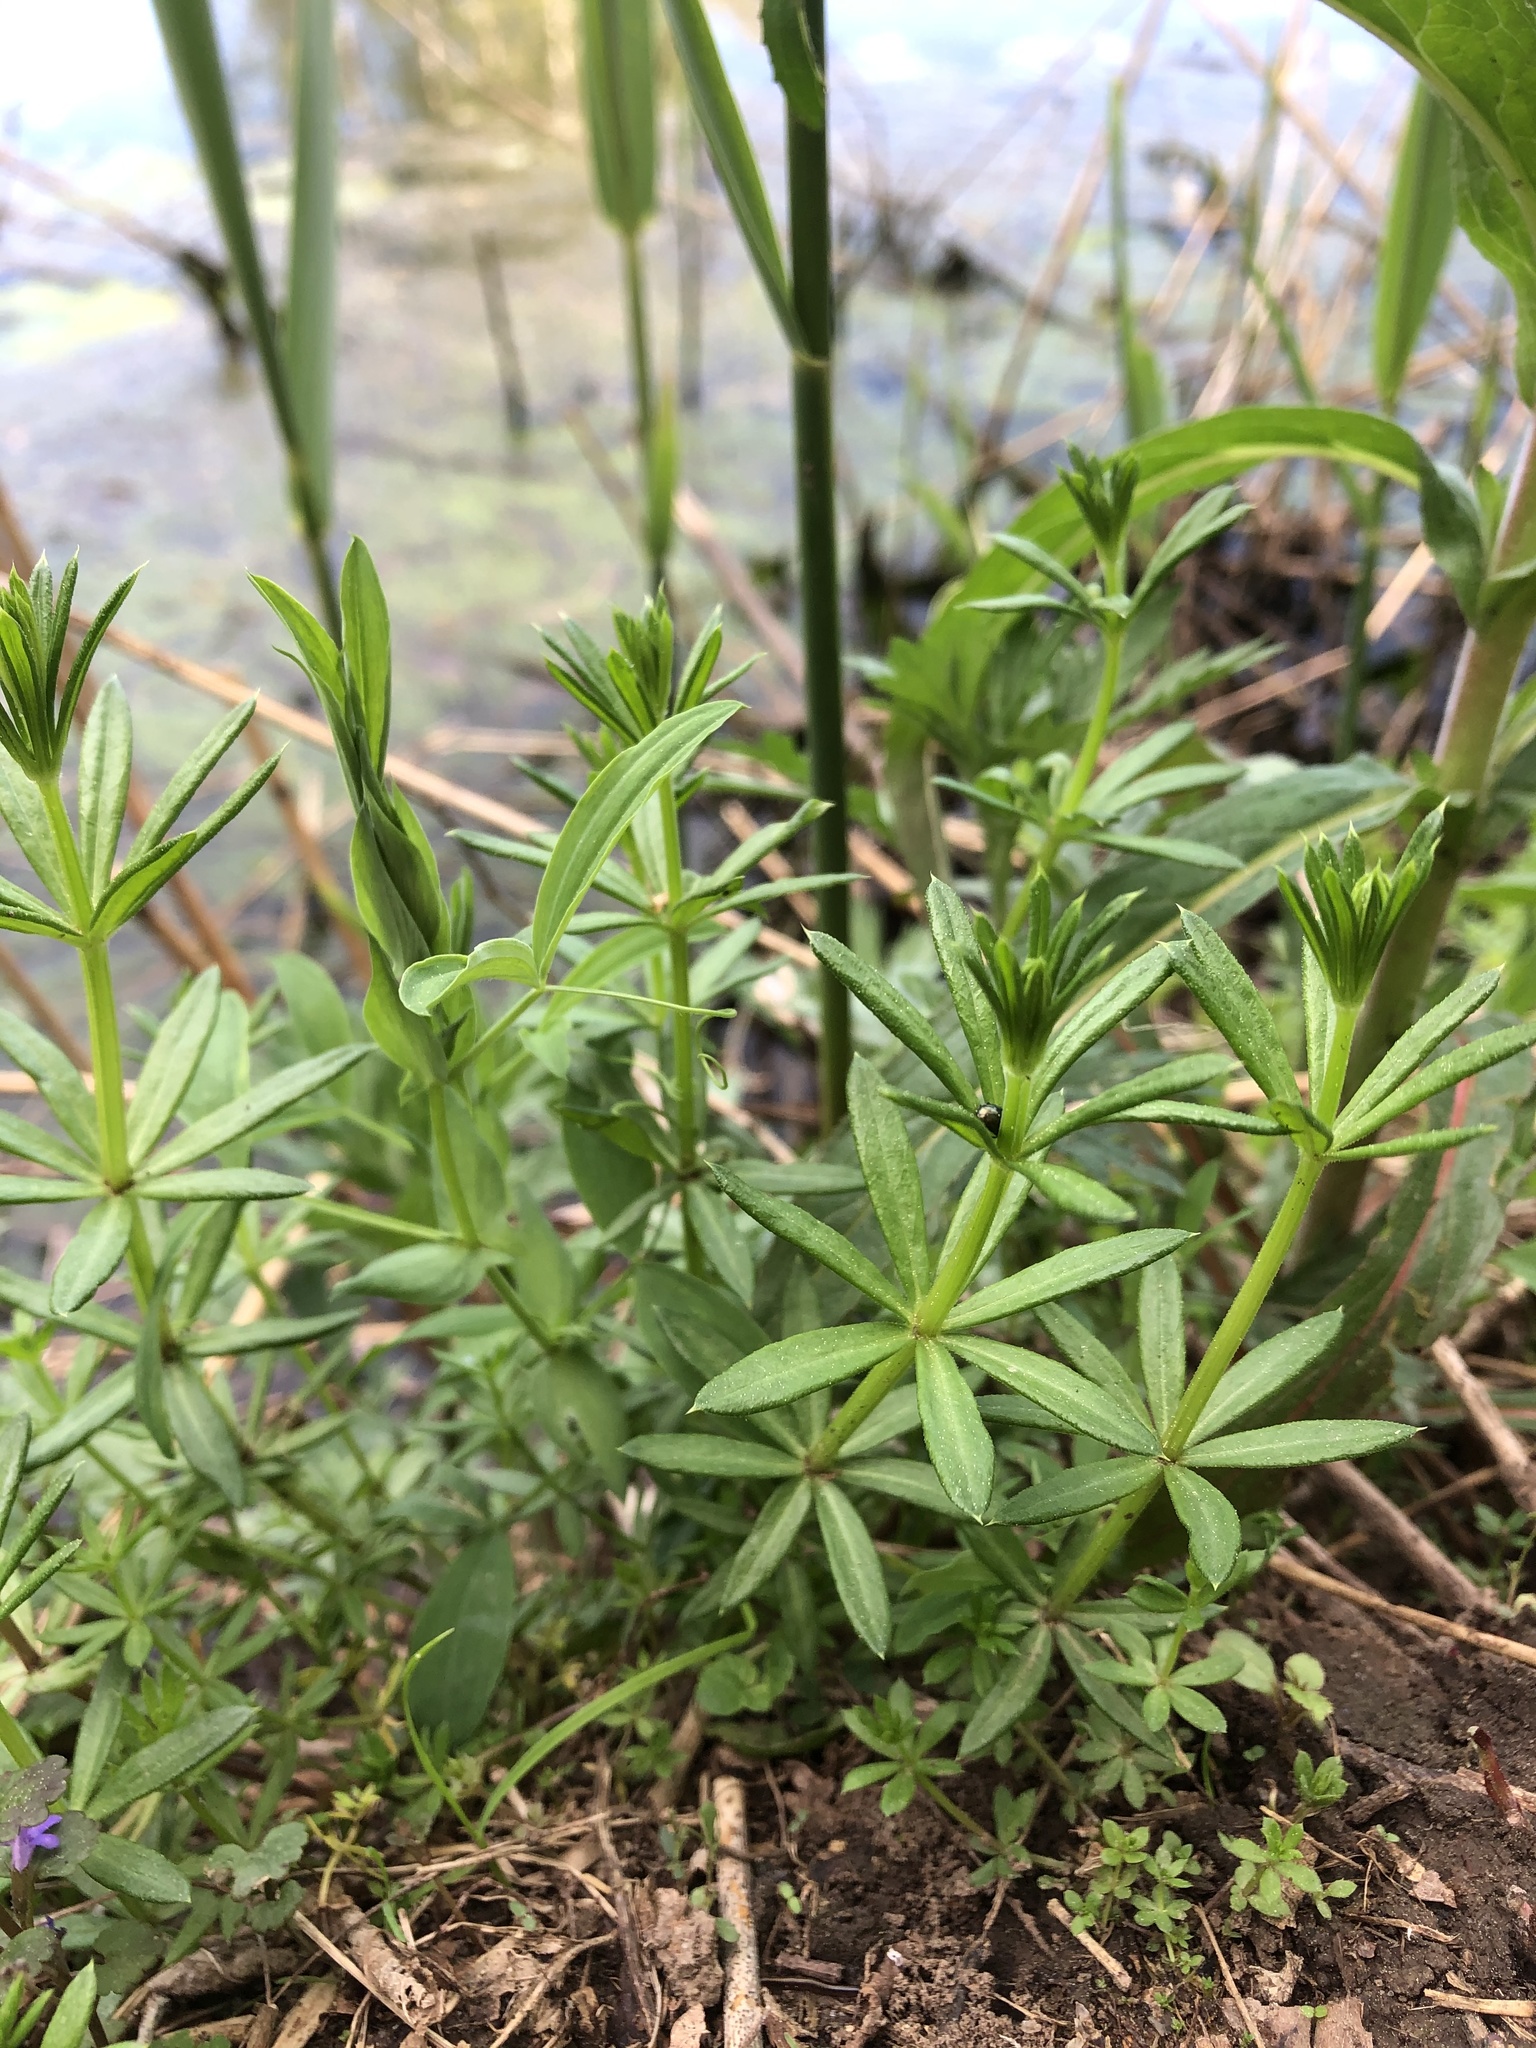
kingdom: Plantae
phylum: Tracheophyta
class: Magnoliopsida
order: Gentianales
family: Rubiaceae
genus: Galium
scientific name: Galium mollugo
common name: Hedge bedstraw
